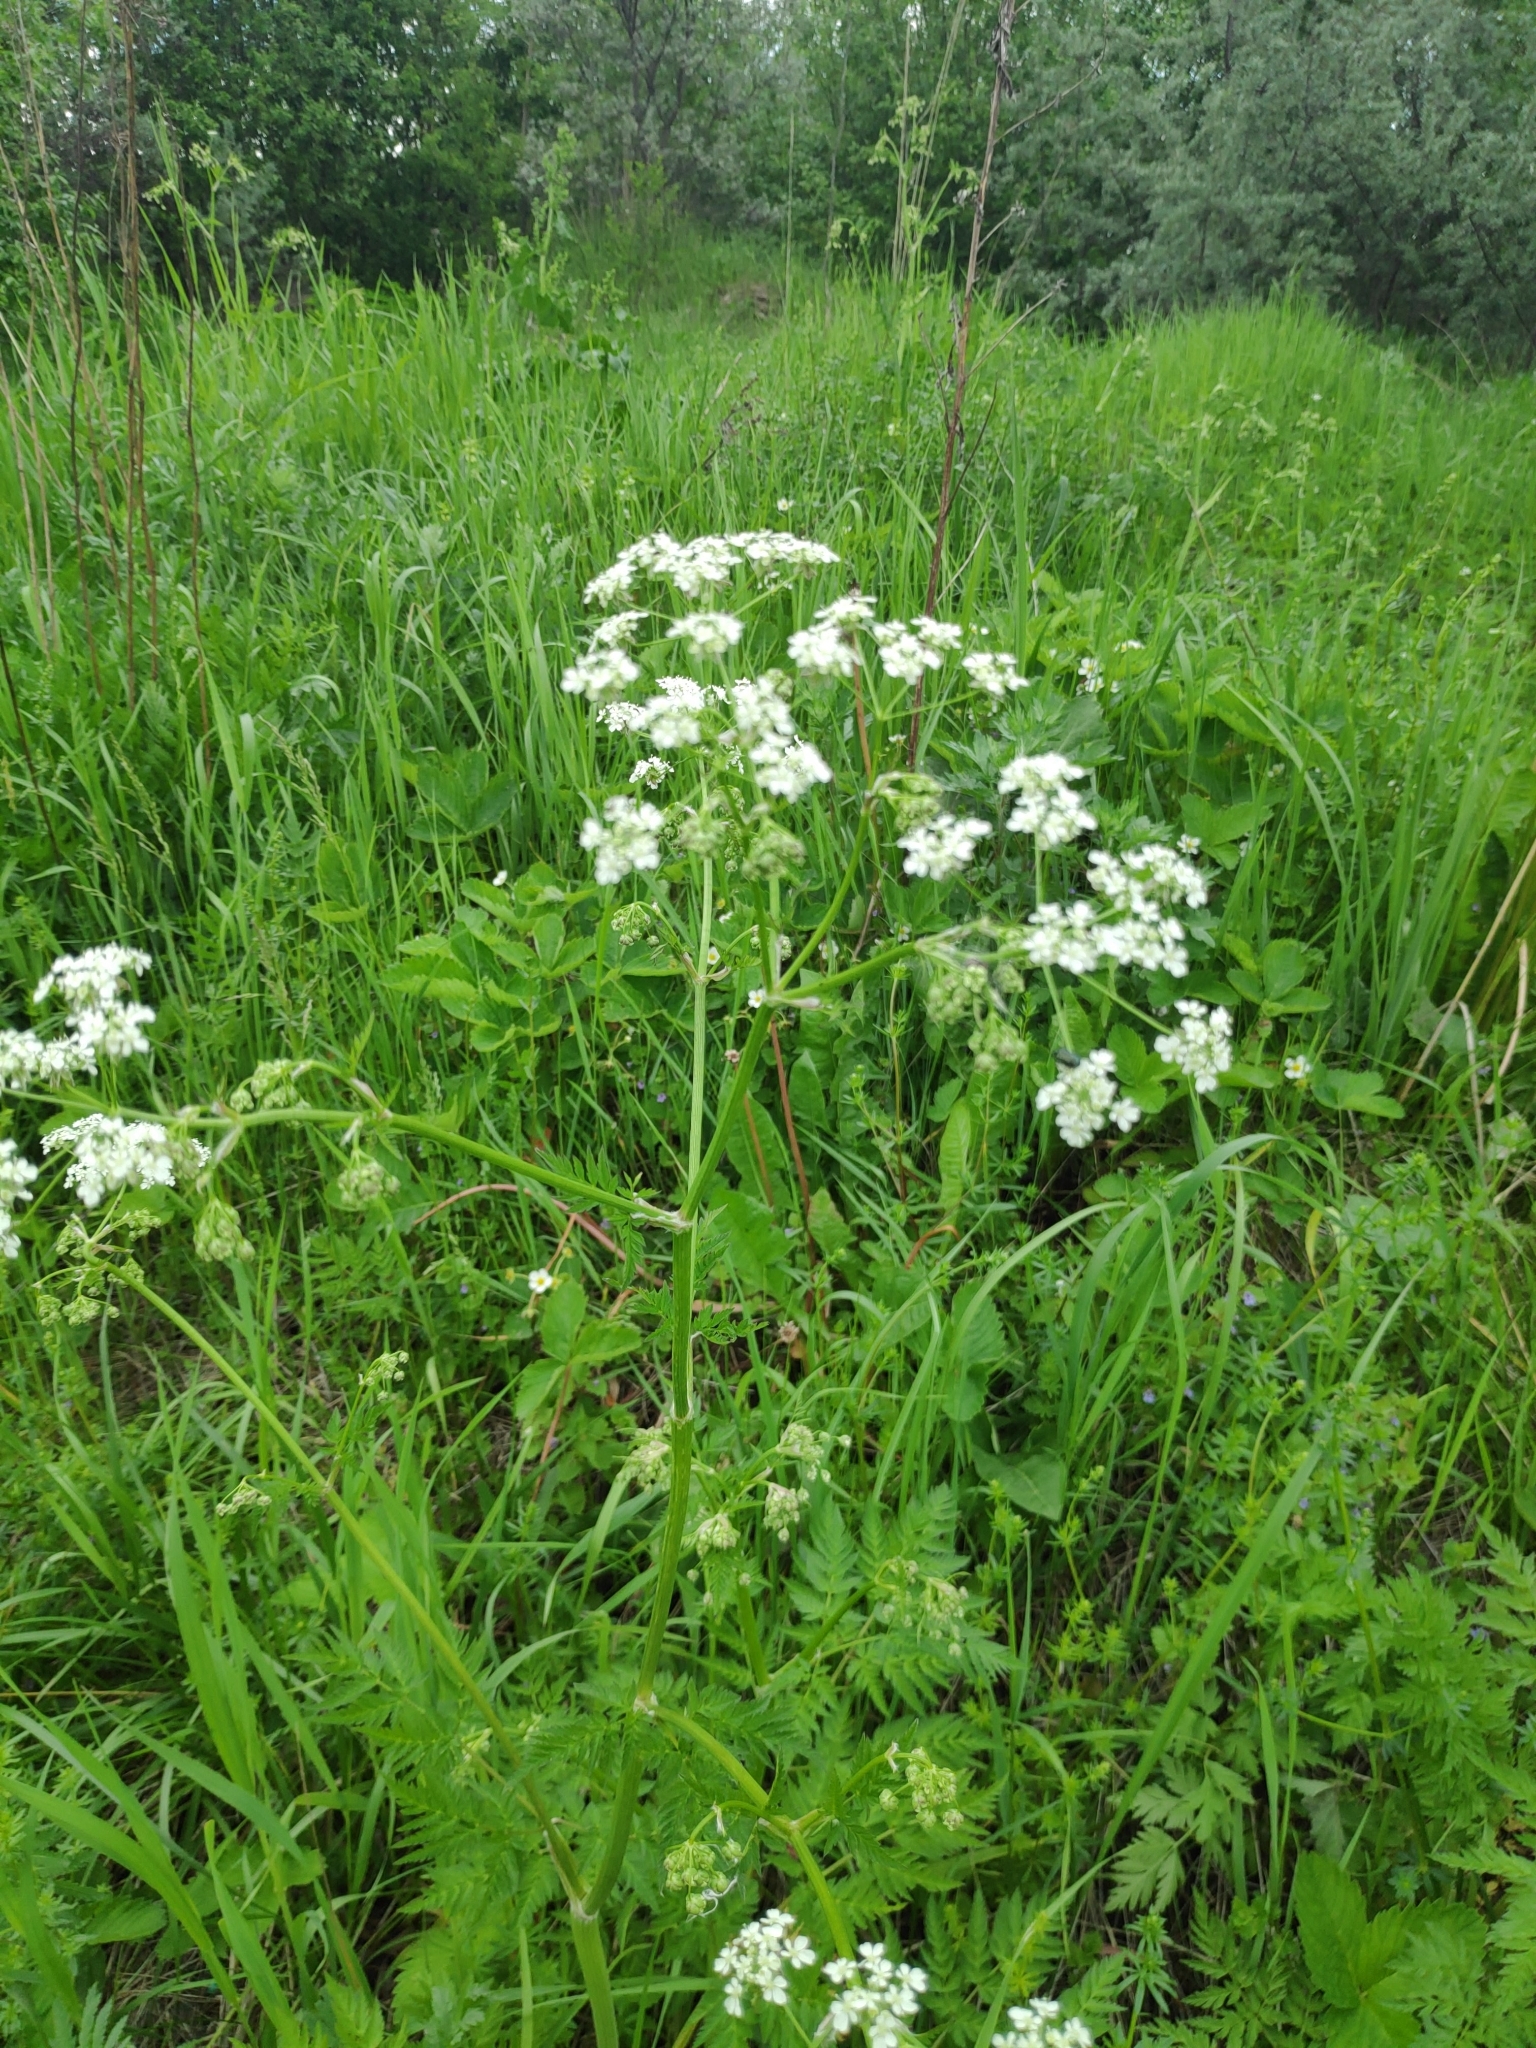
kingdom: Plantae
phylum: Tracheophyta
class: Magnoliopsida
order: Apiales
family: Apiaceae
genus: Anthriscus
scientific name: Anthriscus sylvestris
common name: Cow parsley
